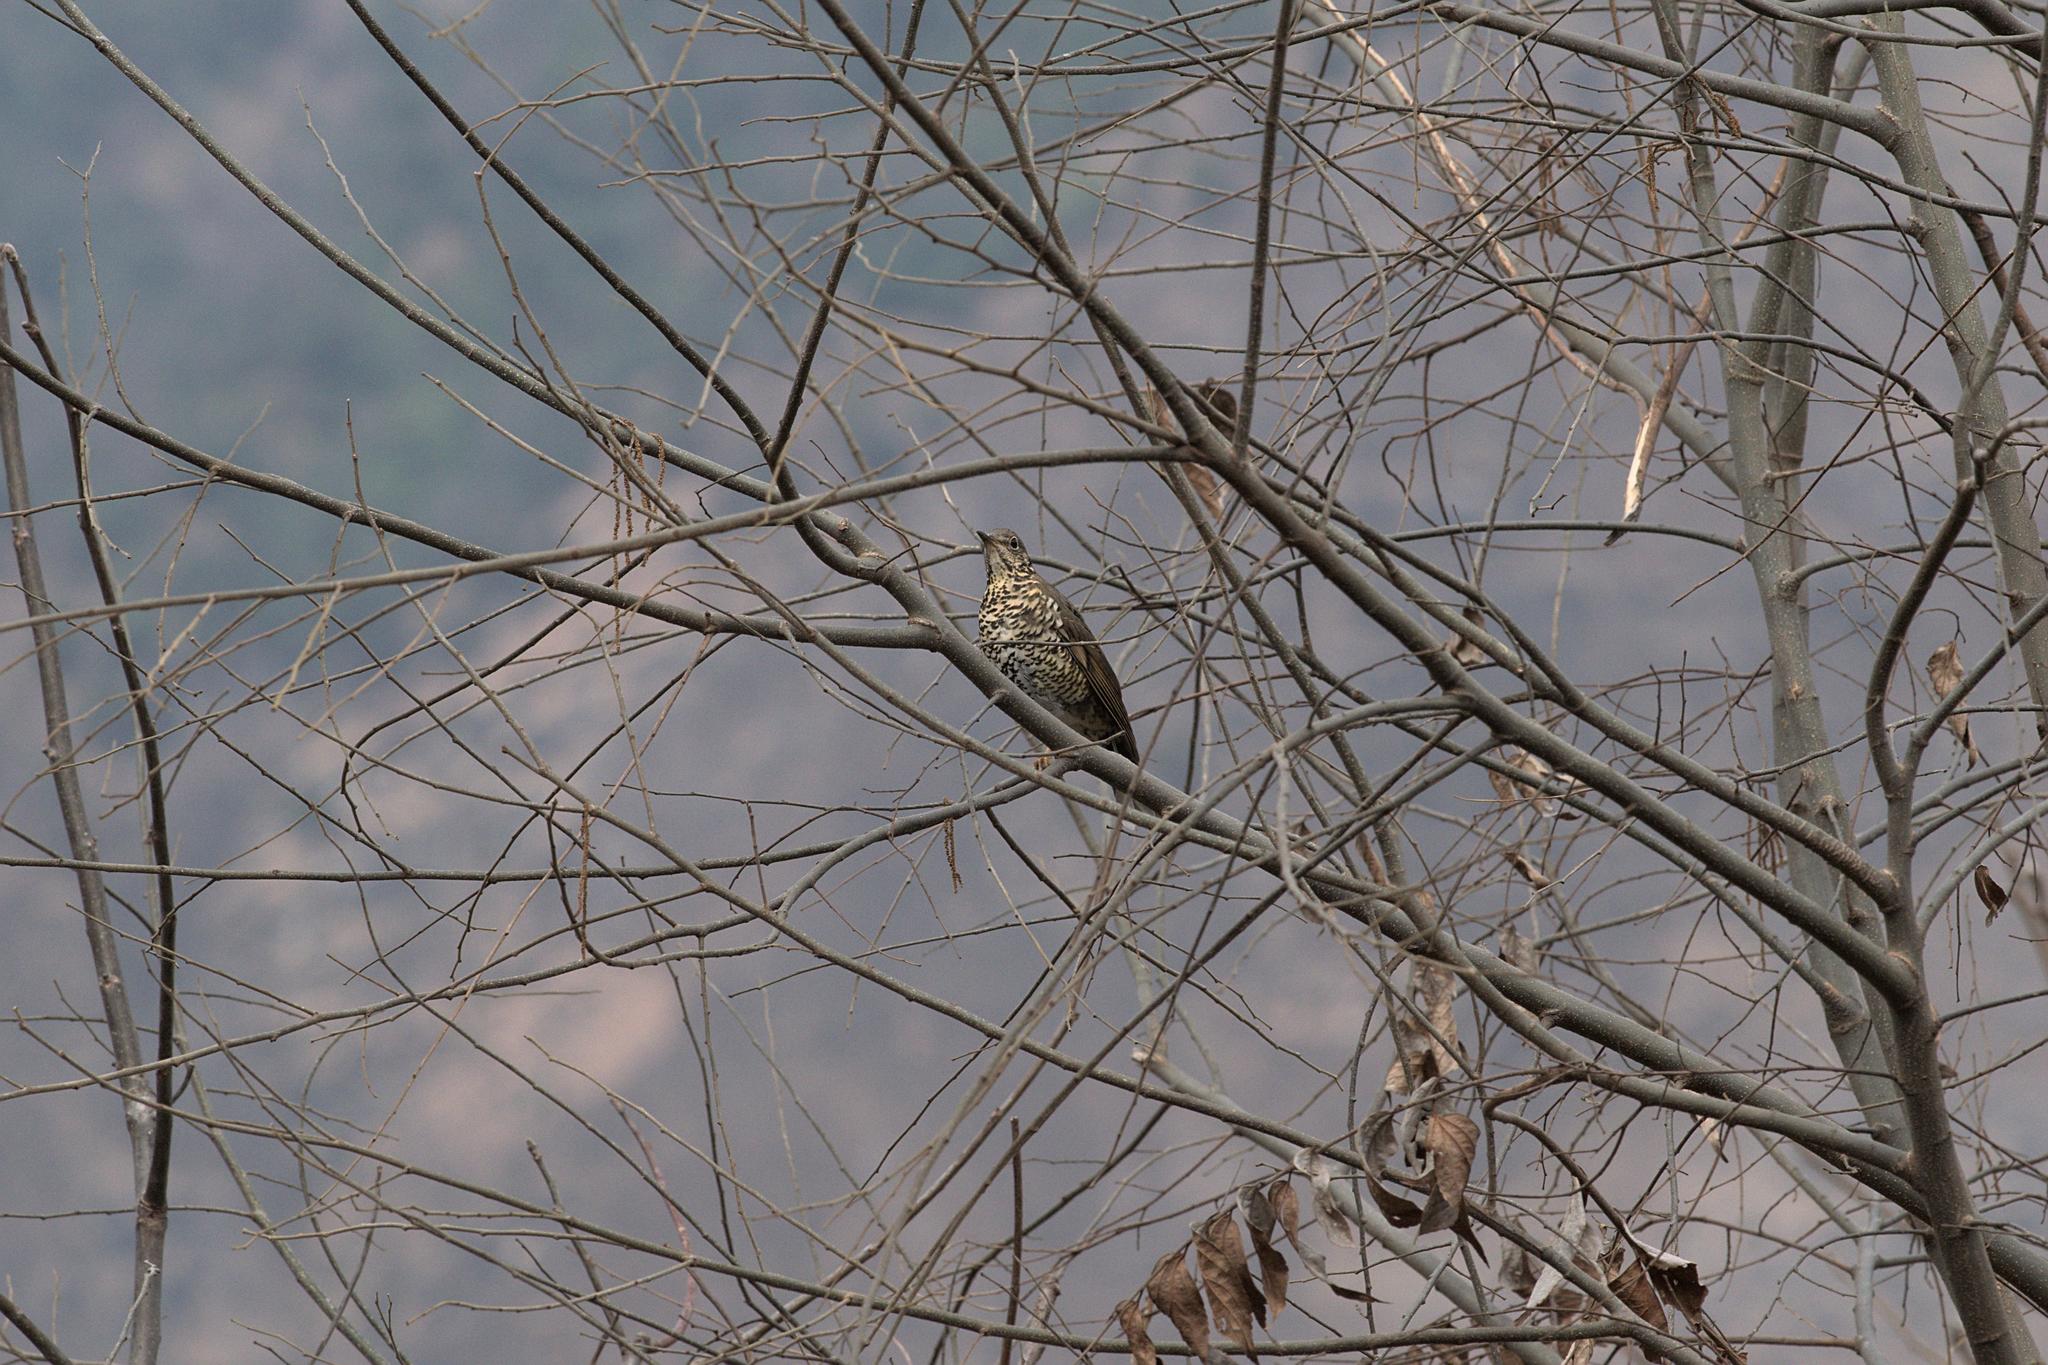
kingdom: Animalia
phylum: Chordata
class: Aves
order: Passeriformes
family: Turdidae
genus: Zoothera
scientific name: Zoothera mollissima
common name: Plain-backed thrush
